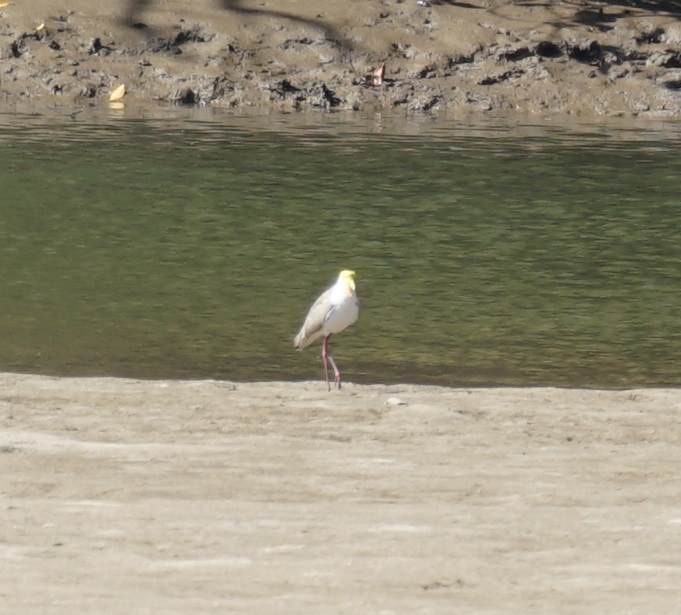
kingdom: Animalia
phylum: Chordata
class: Aves
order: Charadriiformes
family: Charadriidae
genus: Vanellus
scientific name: Vanellus miles
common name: Masked lapwing
